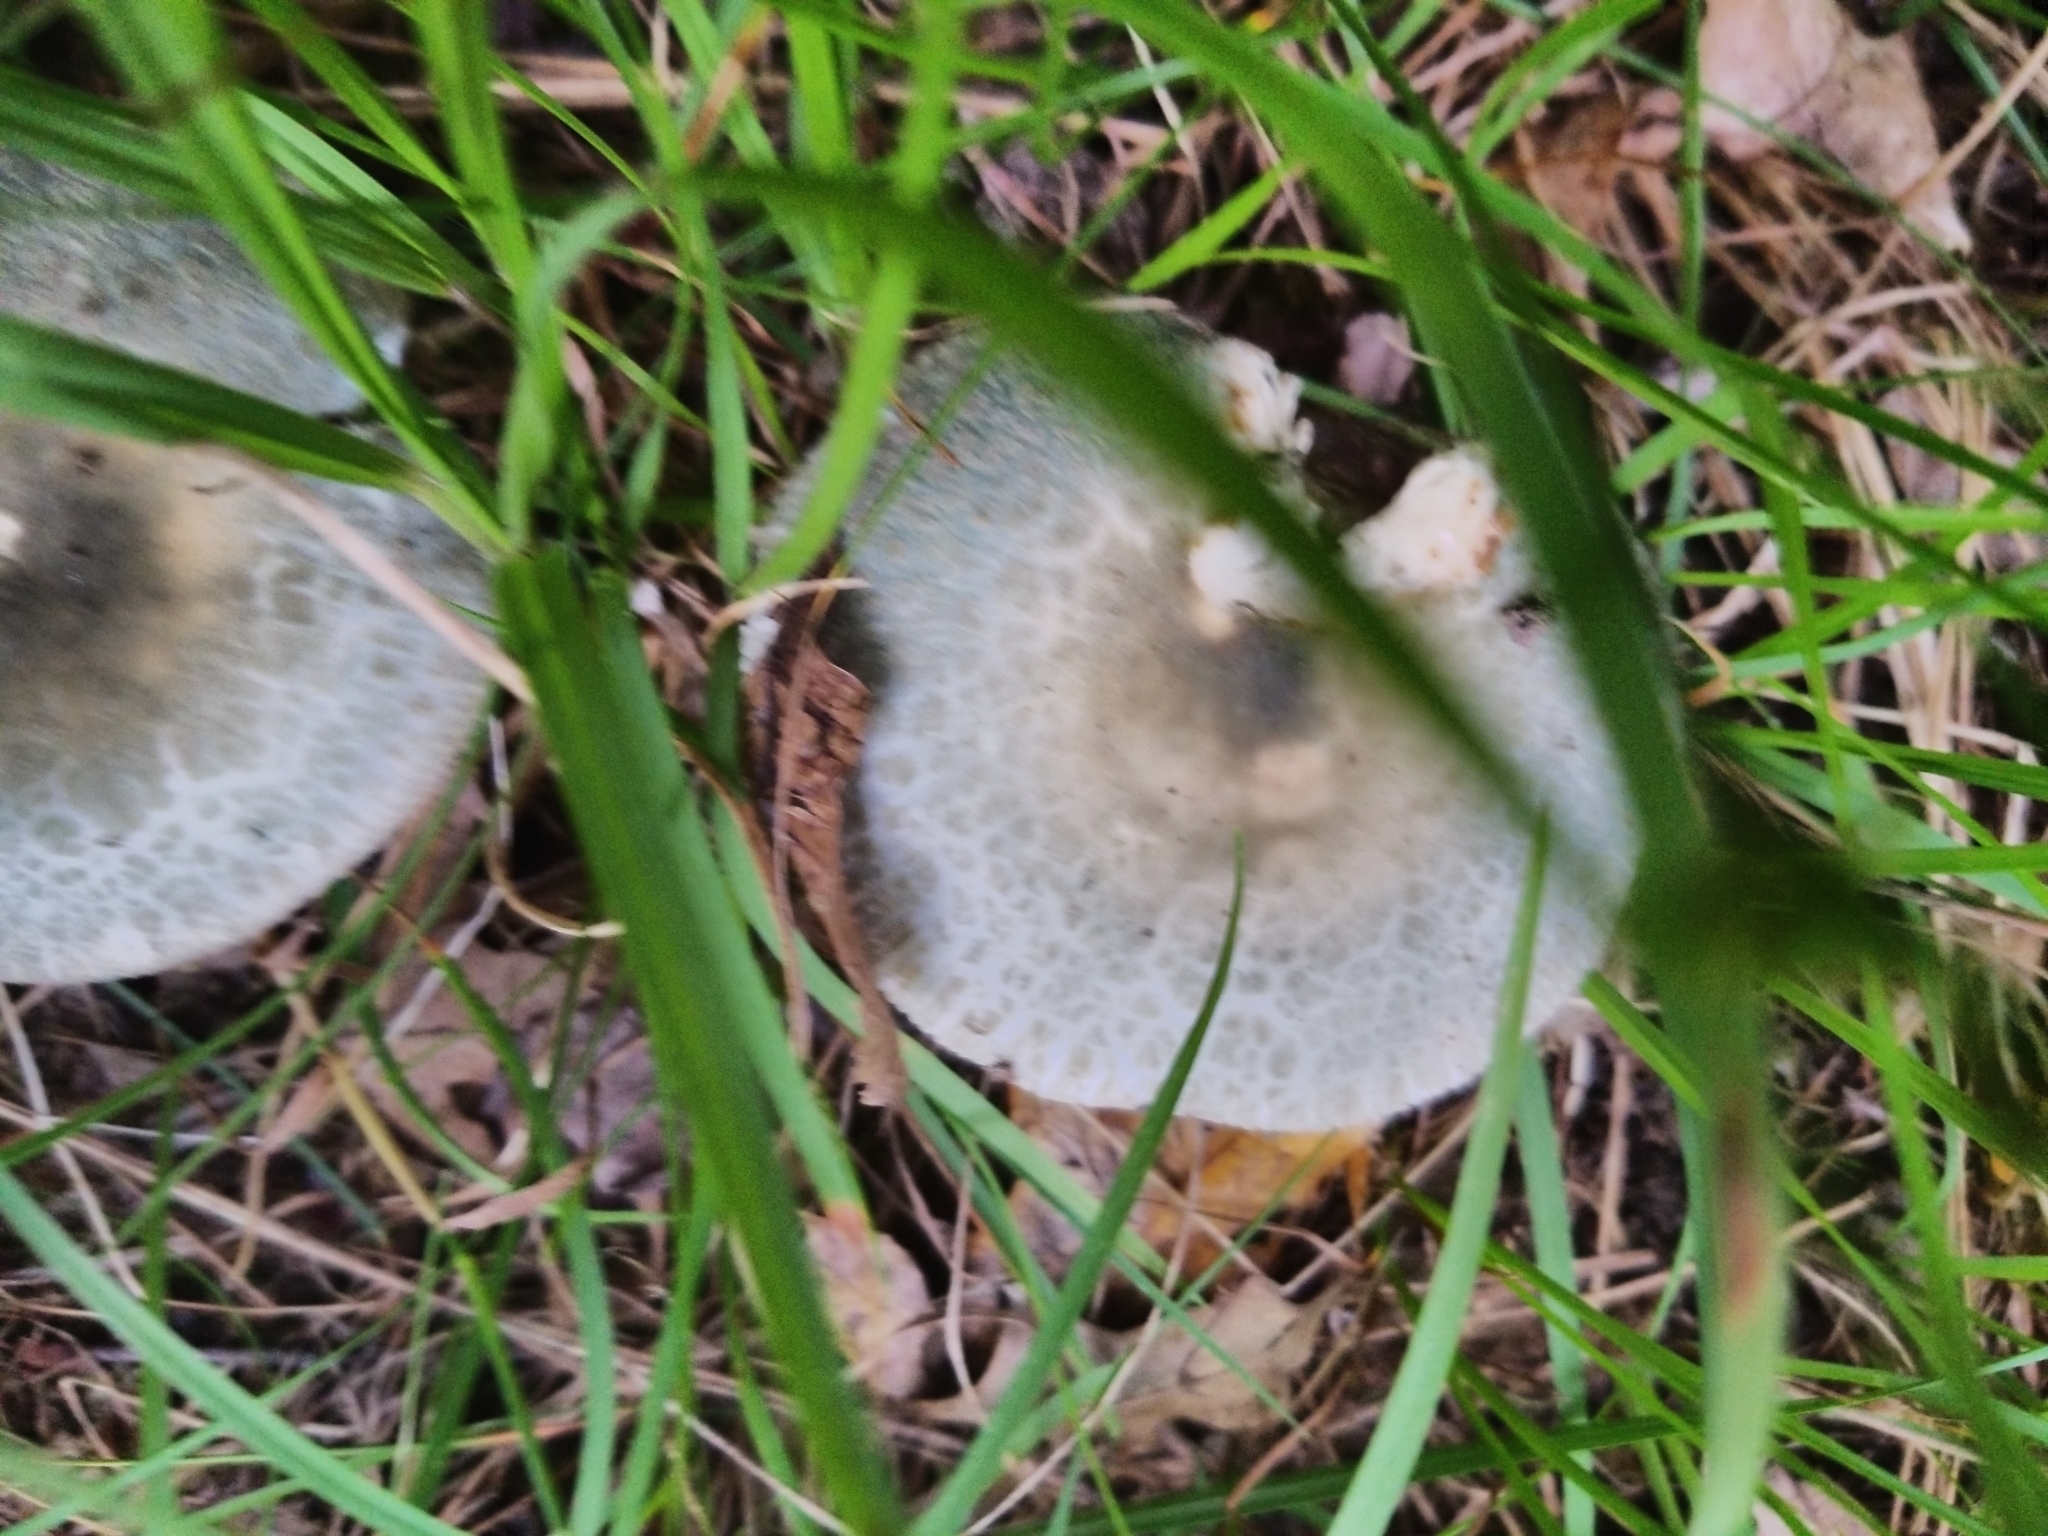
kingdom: Fungi
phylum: Basidiomycota
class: Agaricomycetes
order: Russulales
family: Russulaceae
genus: Russula
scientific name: Russula crustosa
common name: Green quilt russula
